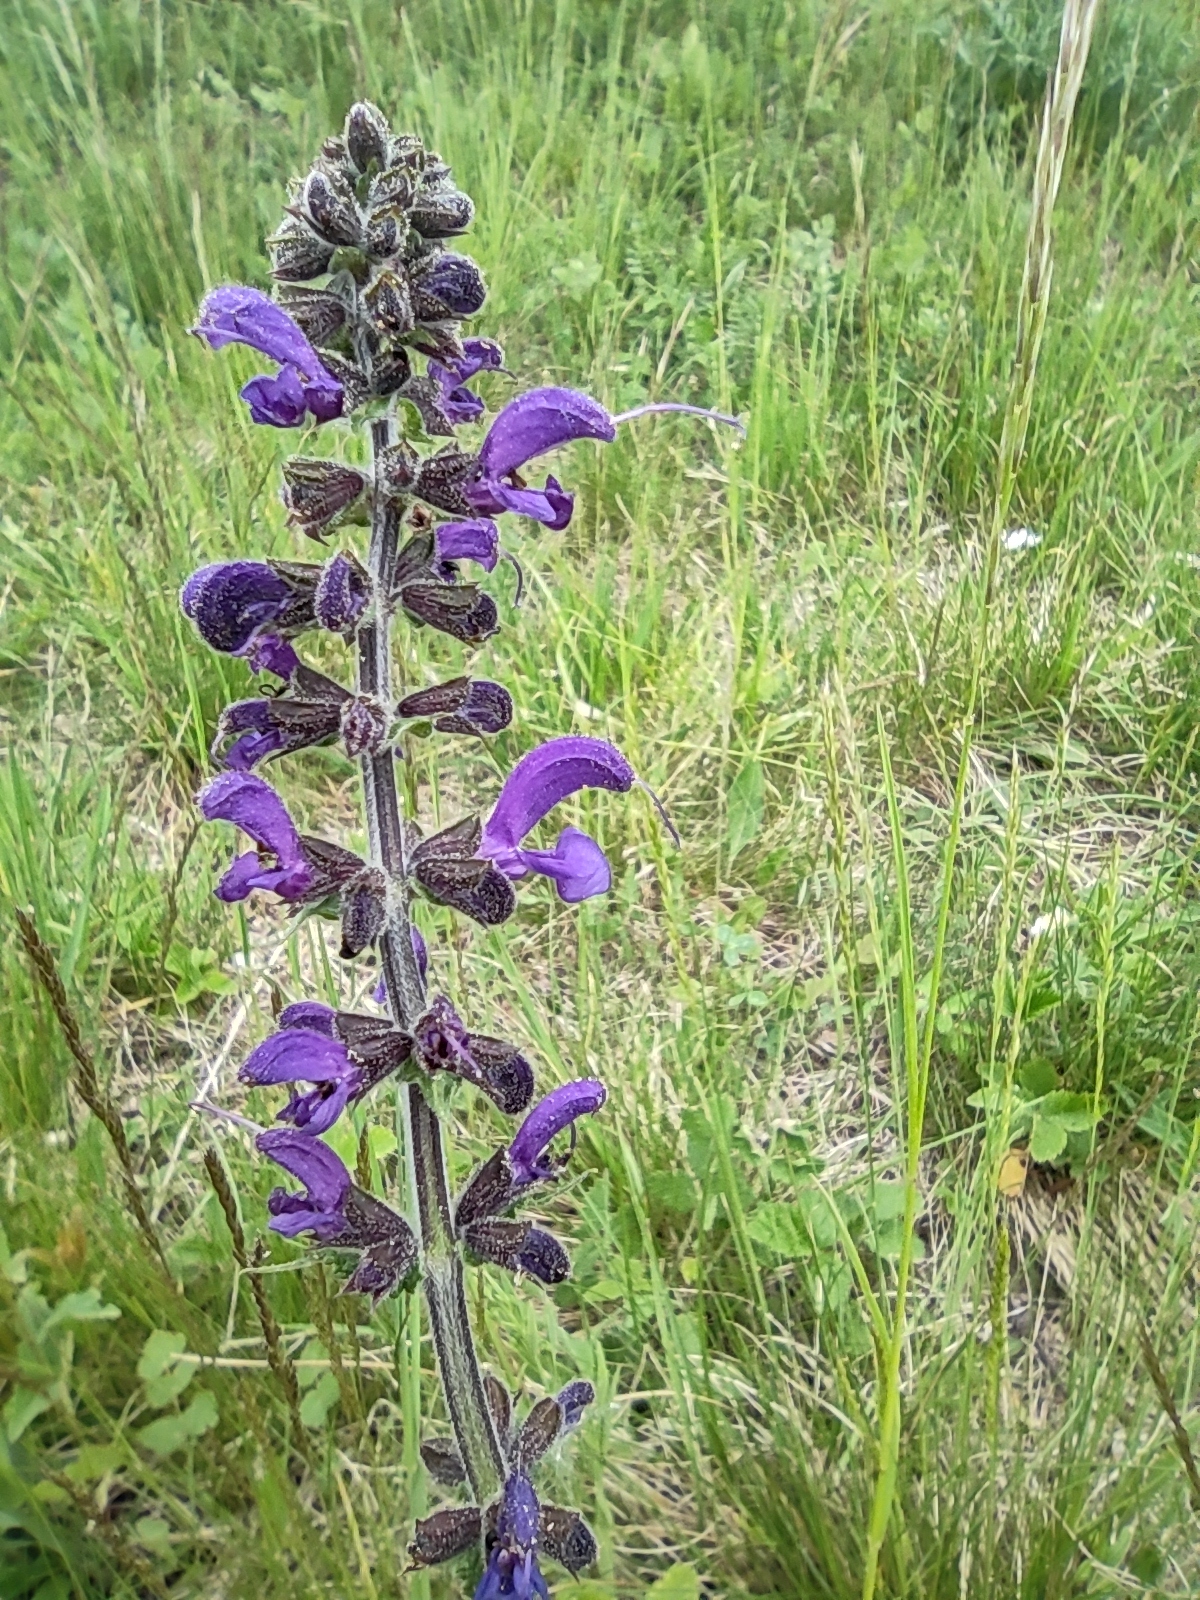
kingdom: Plantae
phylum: Tracheophyta
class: Magnoliopsida
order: Lamiales
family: Lamiaceae
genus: Salvia
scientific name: Salvia pratensis
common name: Meadow sage
